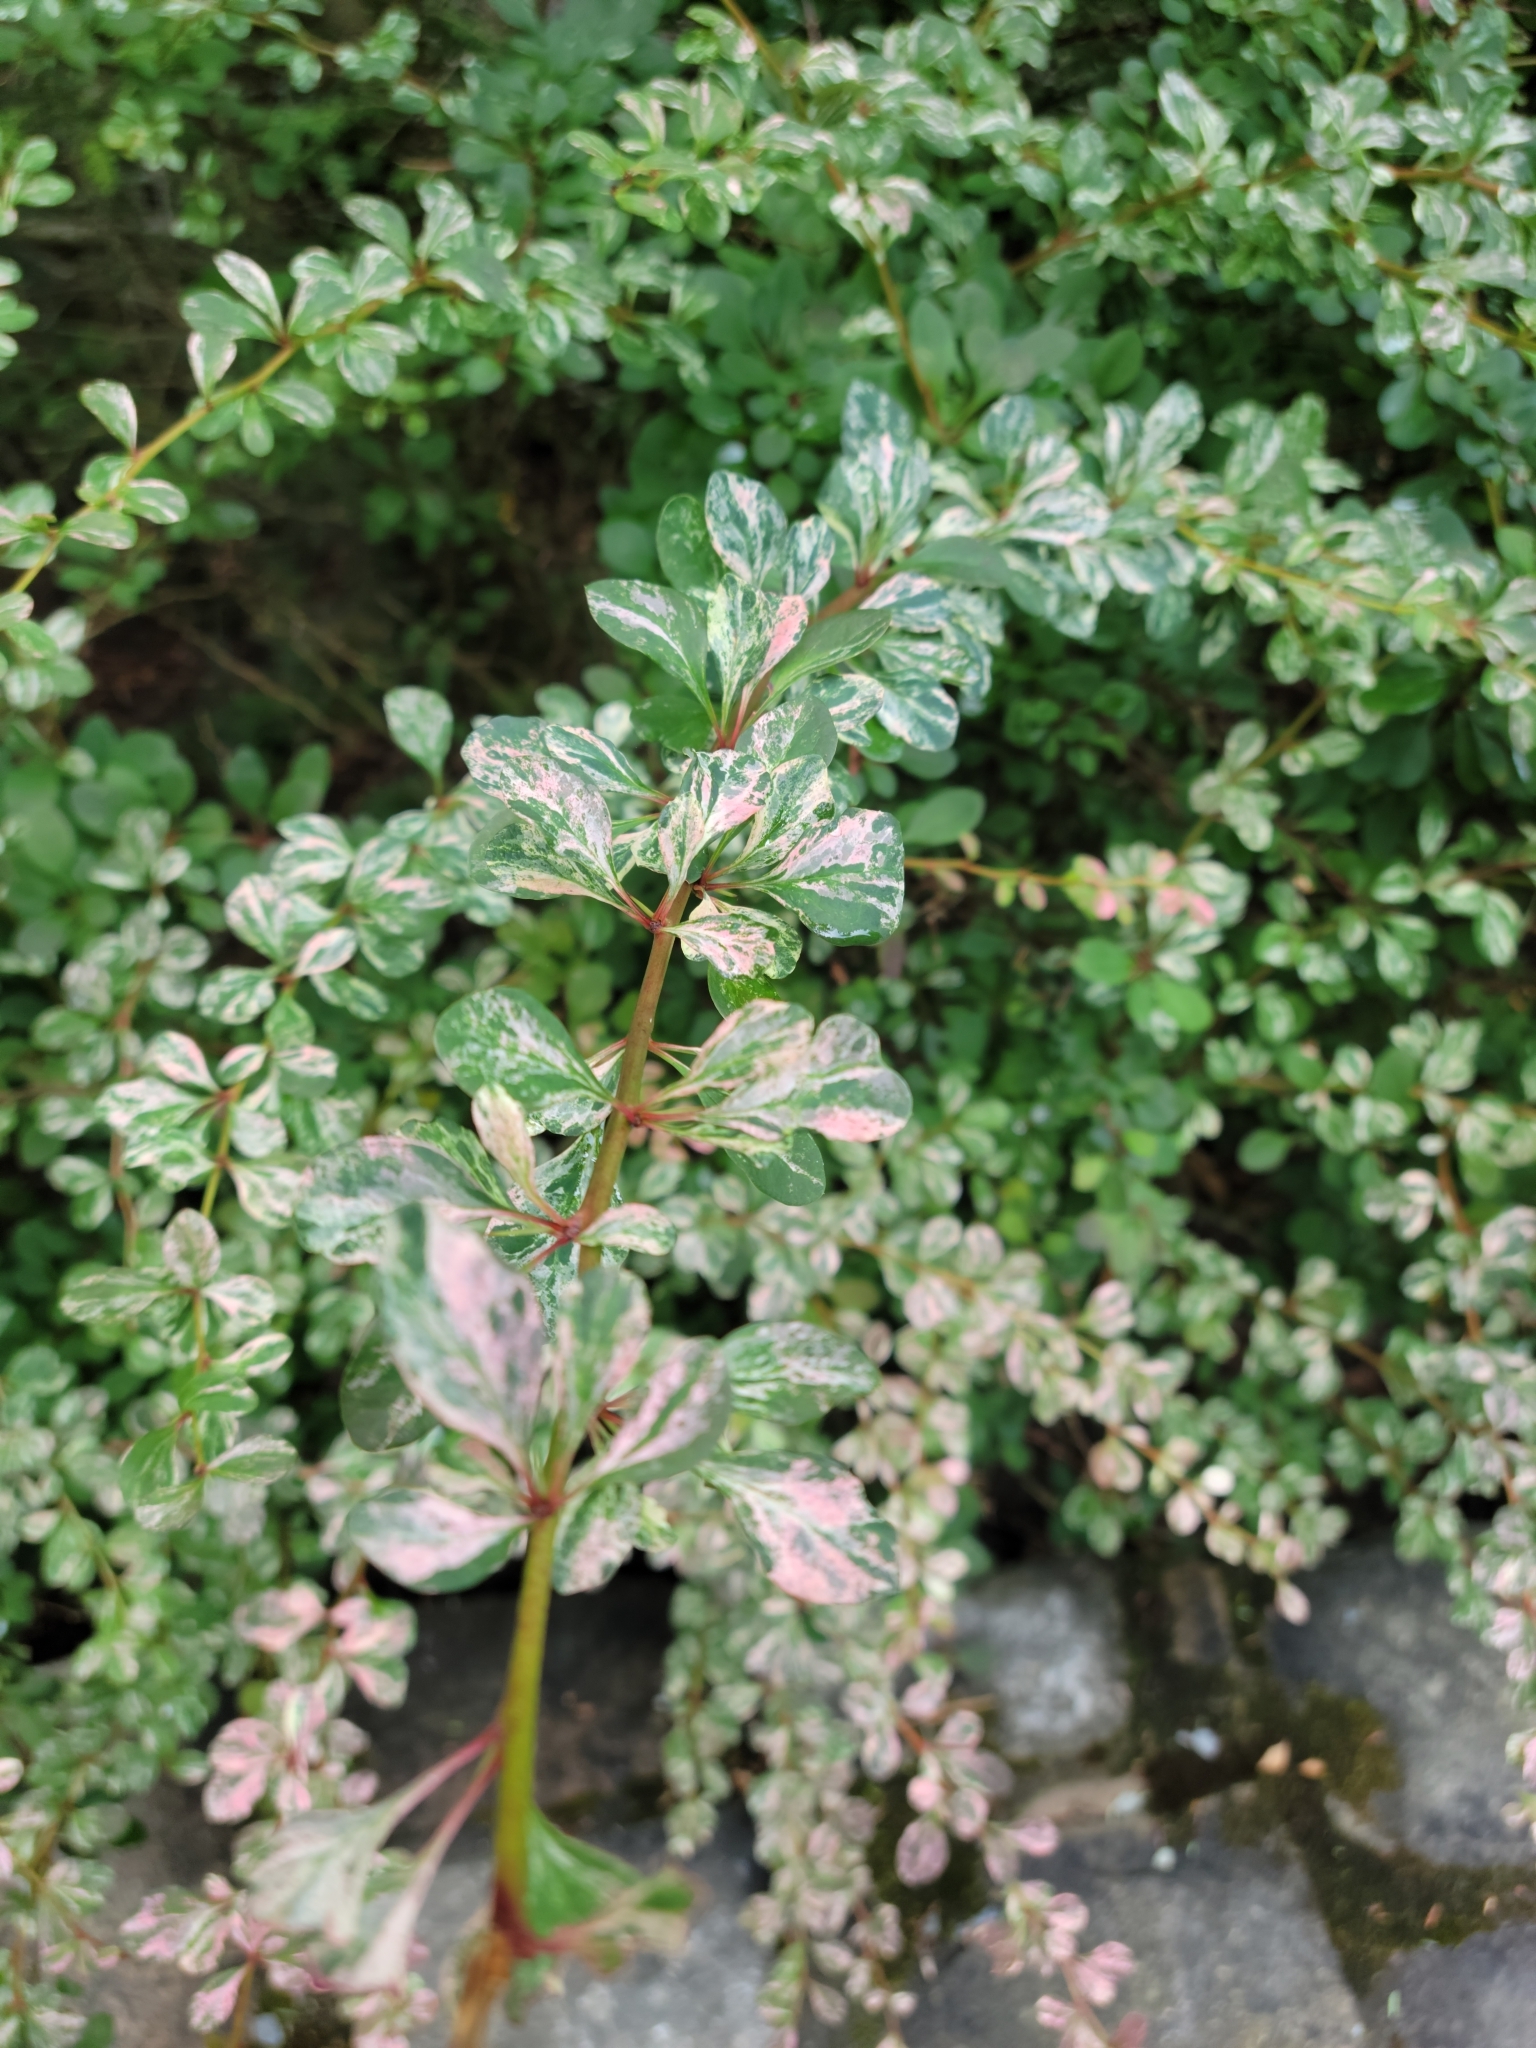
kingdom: Plantae
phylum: Tracheophyta
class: Magnoliopsida
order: Ranunculales
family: Berberidaceae
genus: Berberis
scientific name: Berberis thunbergii
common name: Japanese barberry
